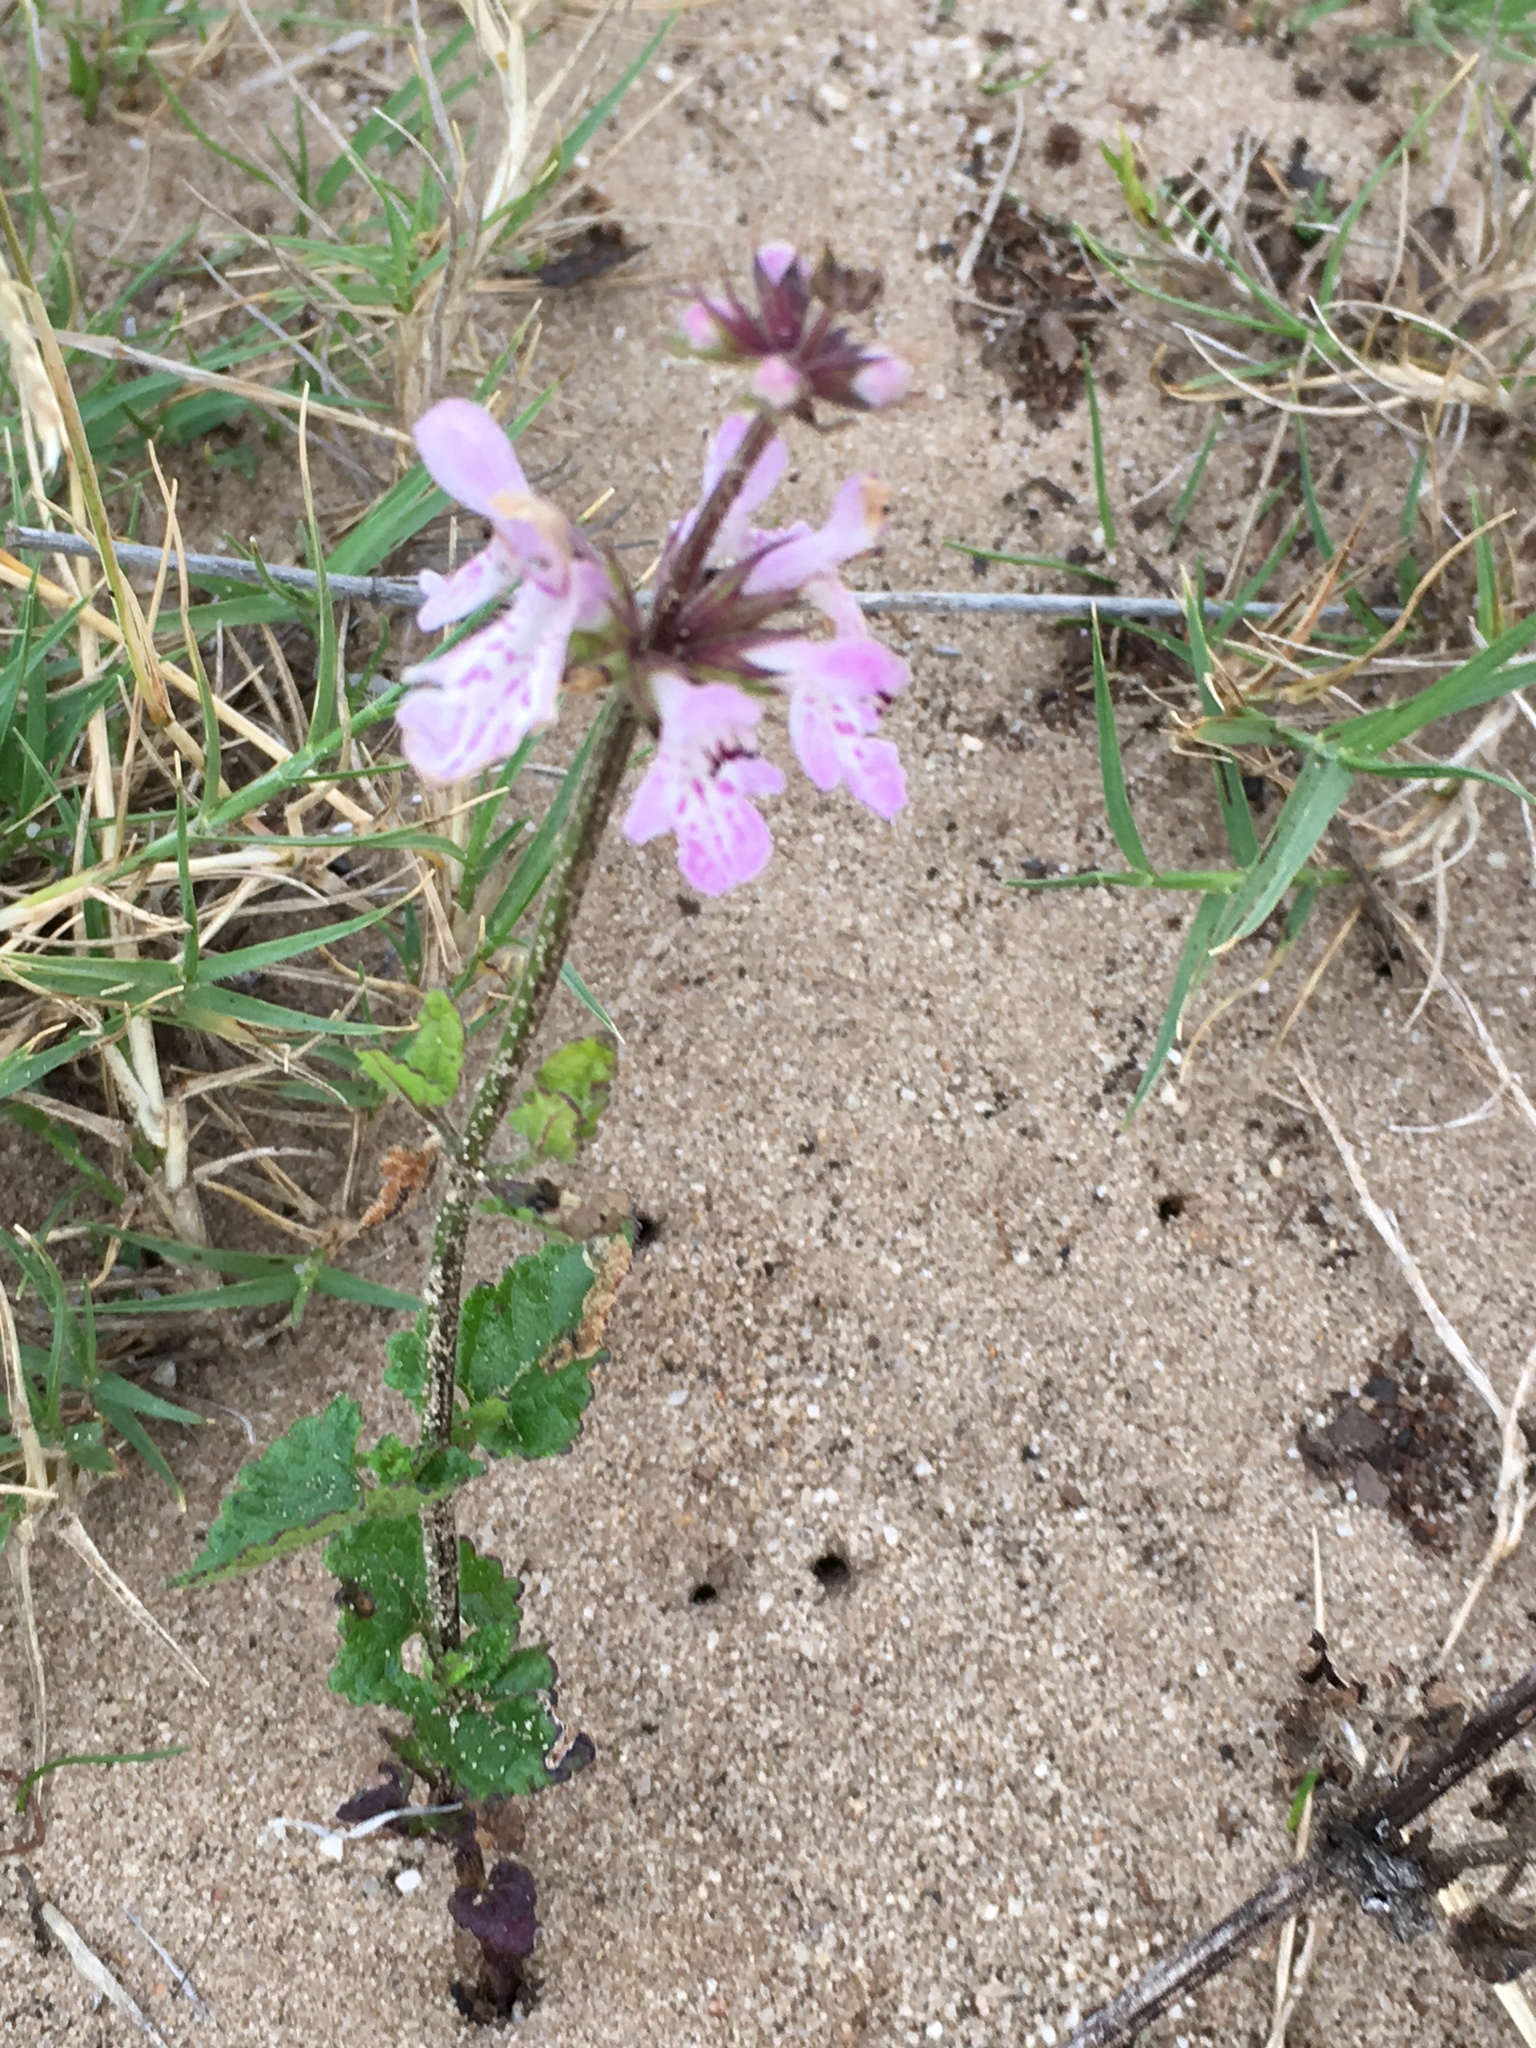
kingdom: Plantae
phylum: Tracheophyta
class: Magnoliopsida
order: Lamiales
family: Lamiaceae
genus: Stachys
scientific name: Stachys aethiopica
